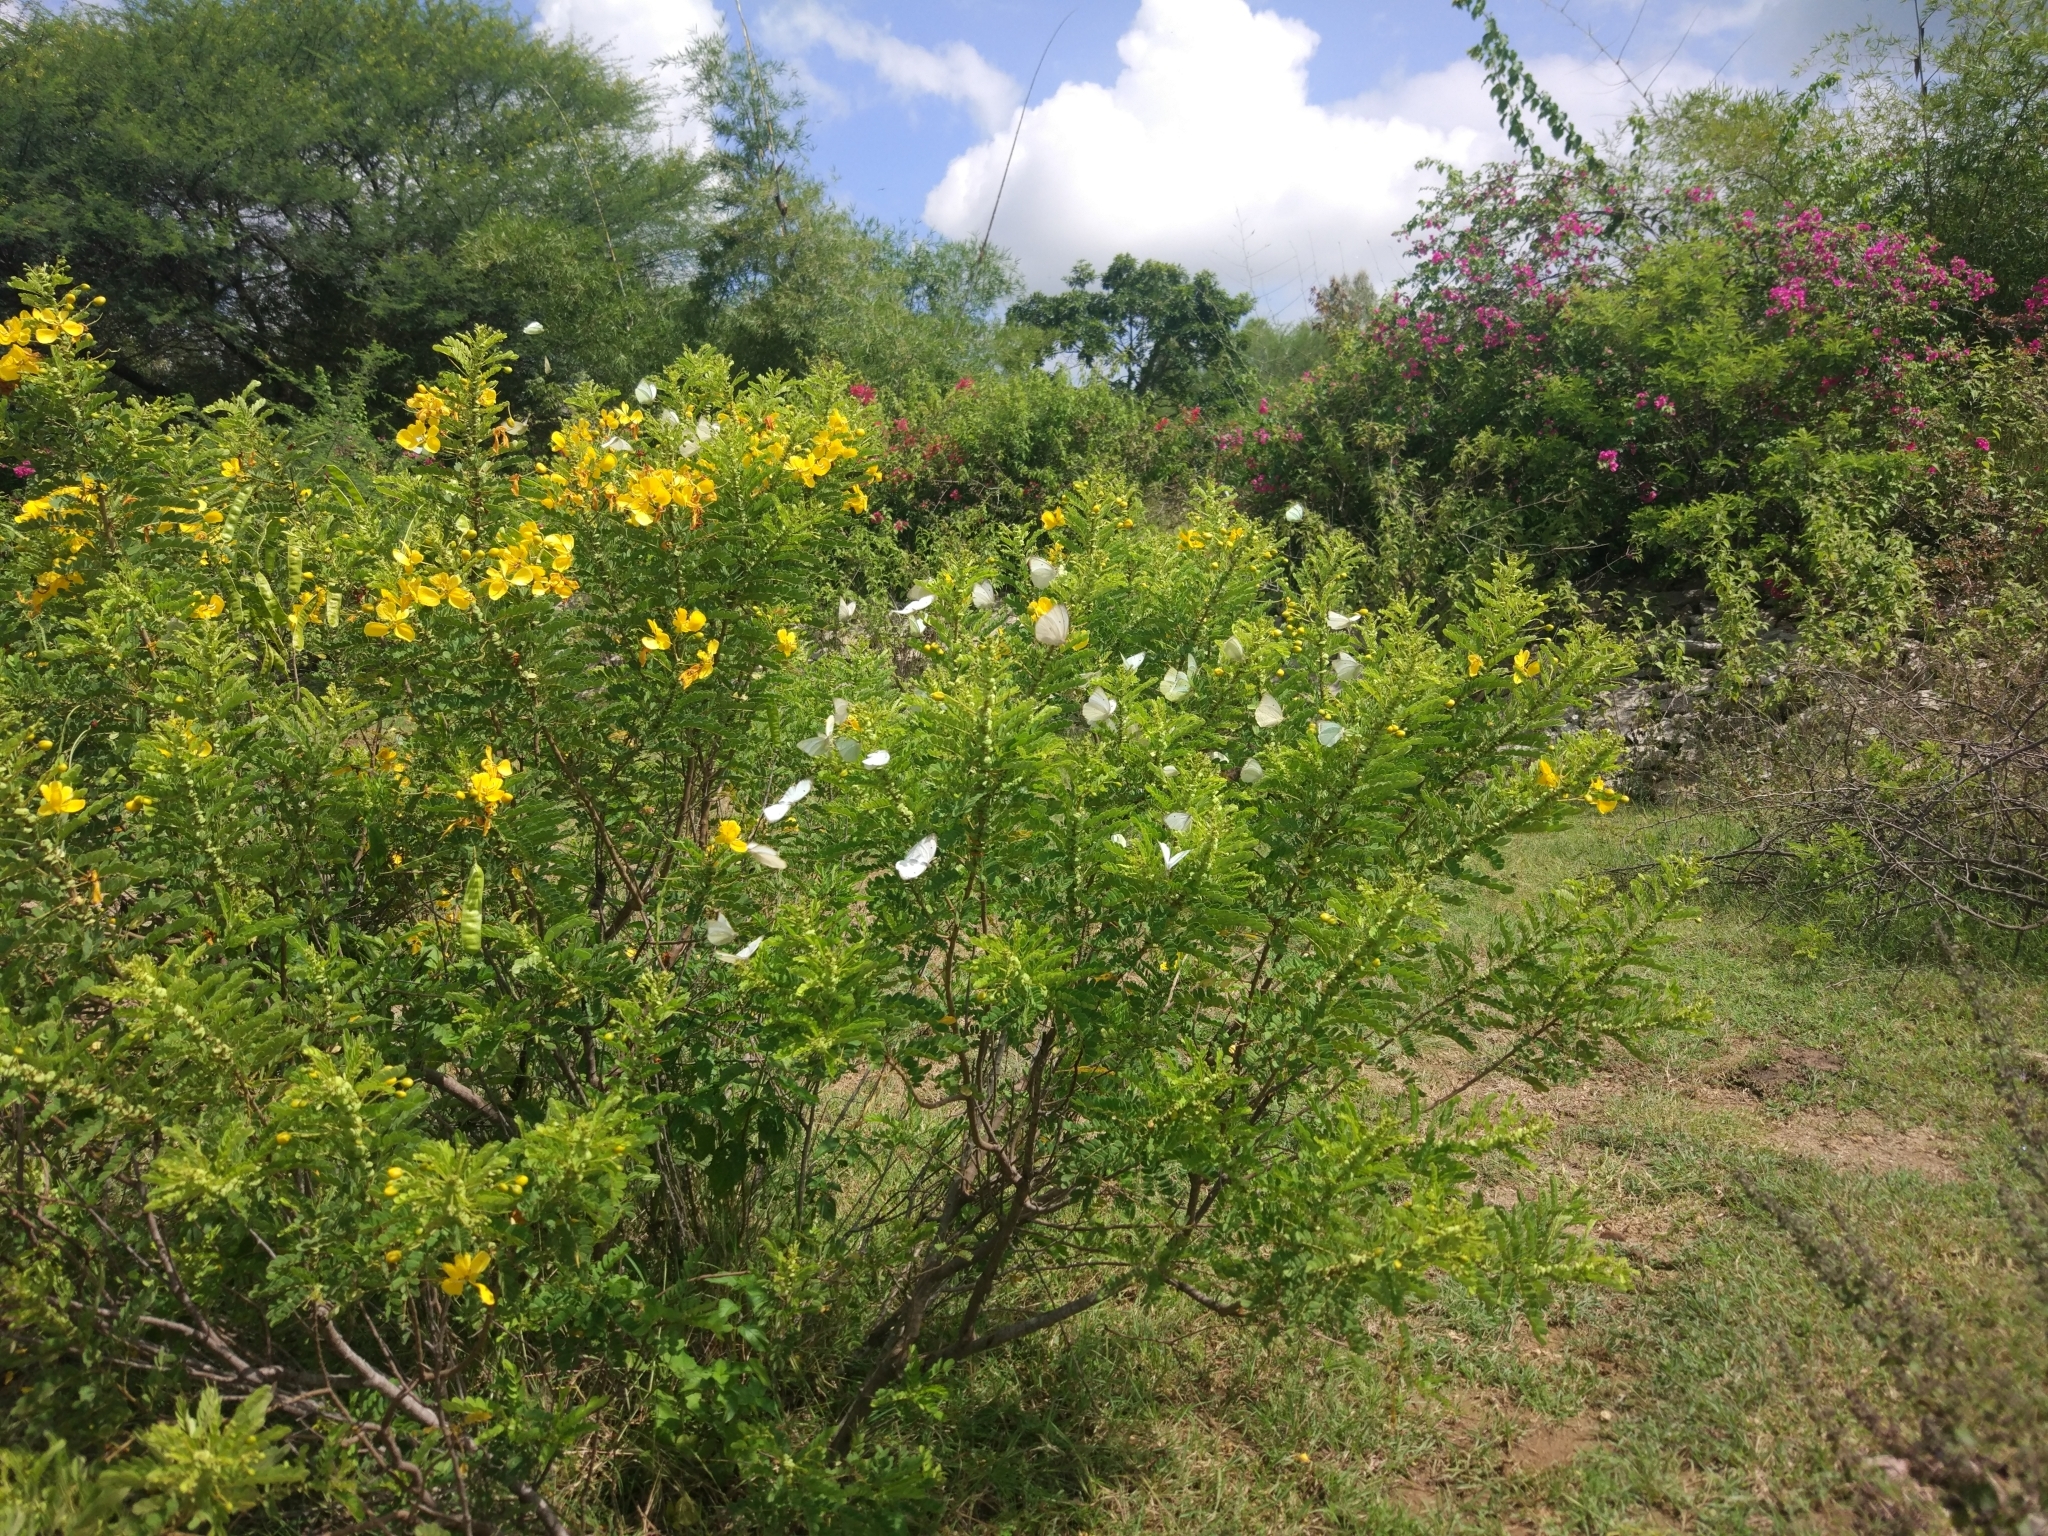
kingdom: Animalia
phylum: Arthropoda
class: Insecta
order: Lepidoptera
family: Pieridae
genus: Catopsilia
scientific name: Catopsilia pyranthe
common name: Mottled emigrant
